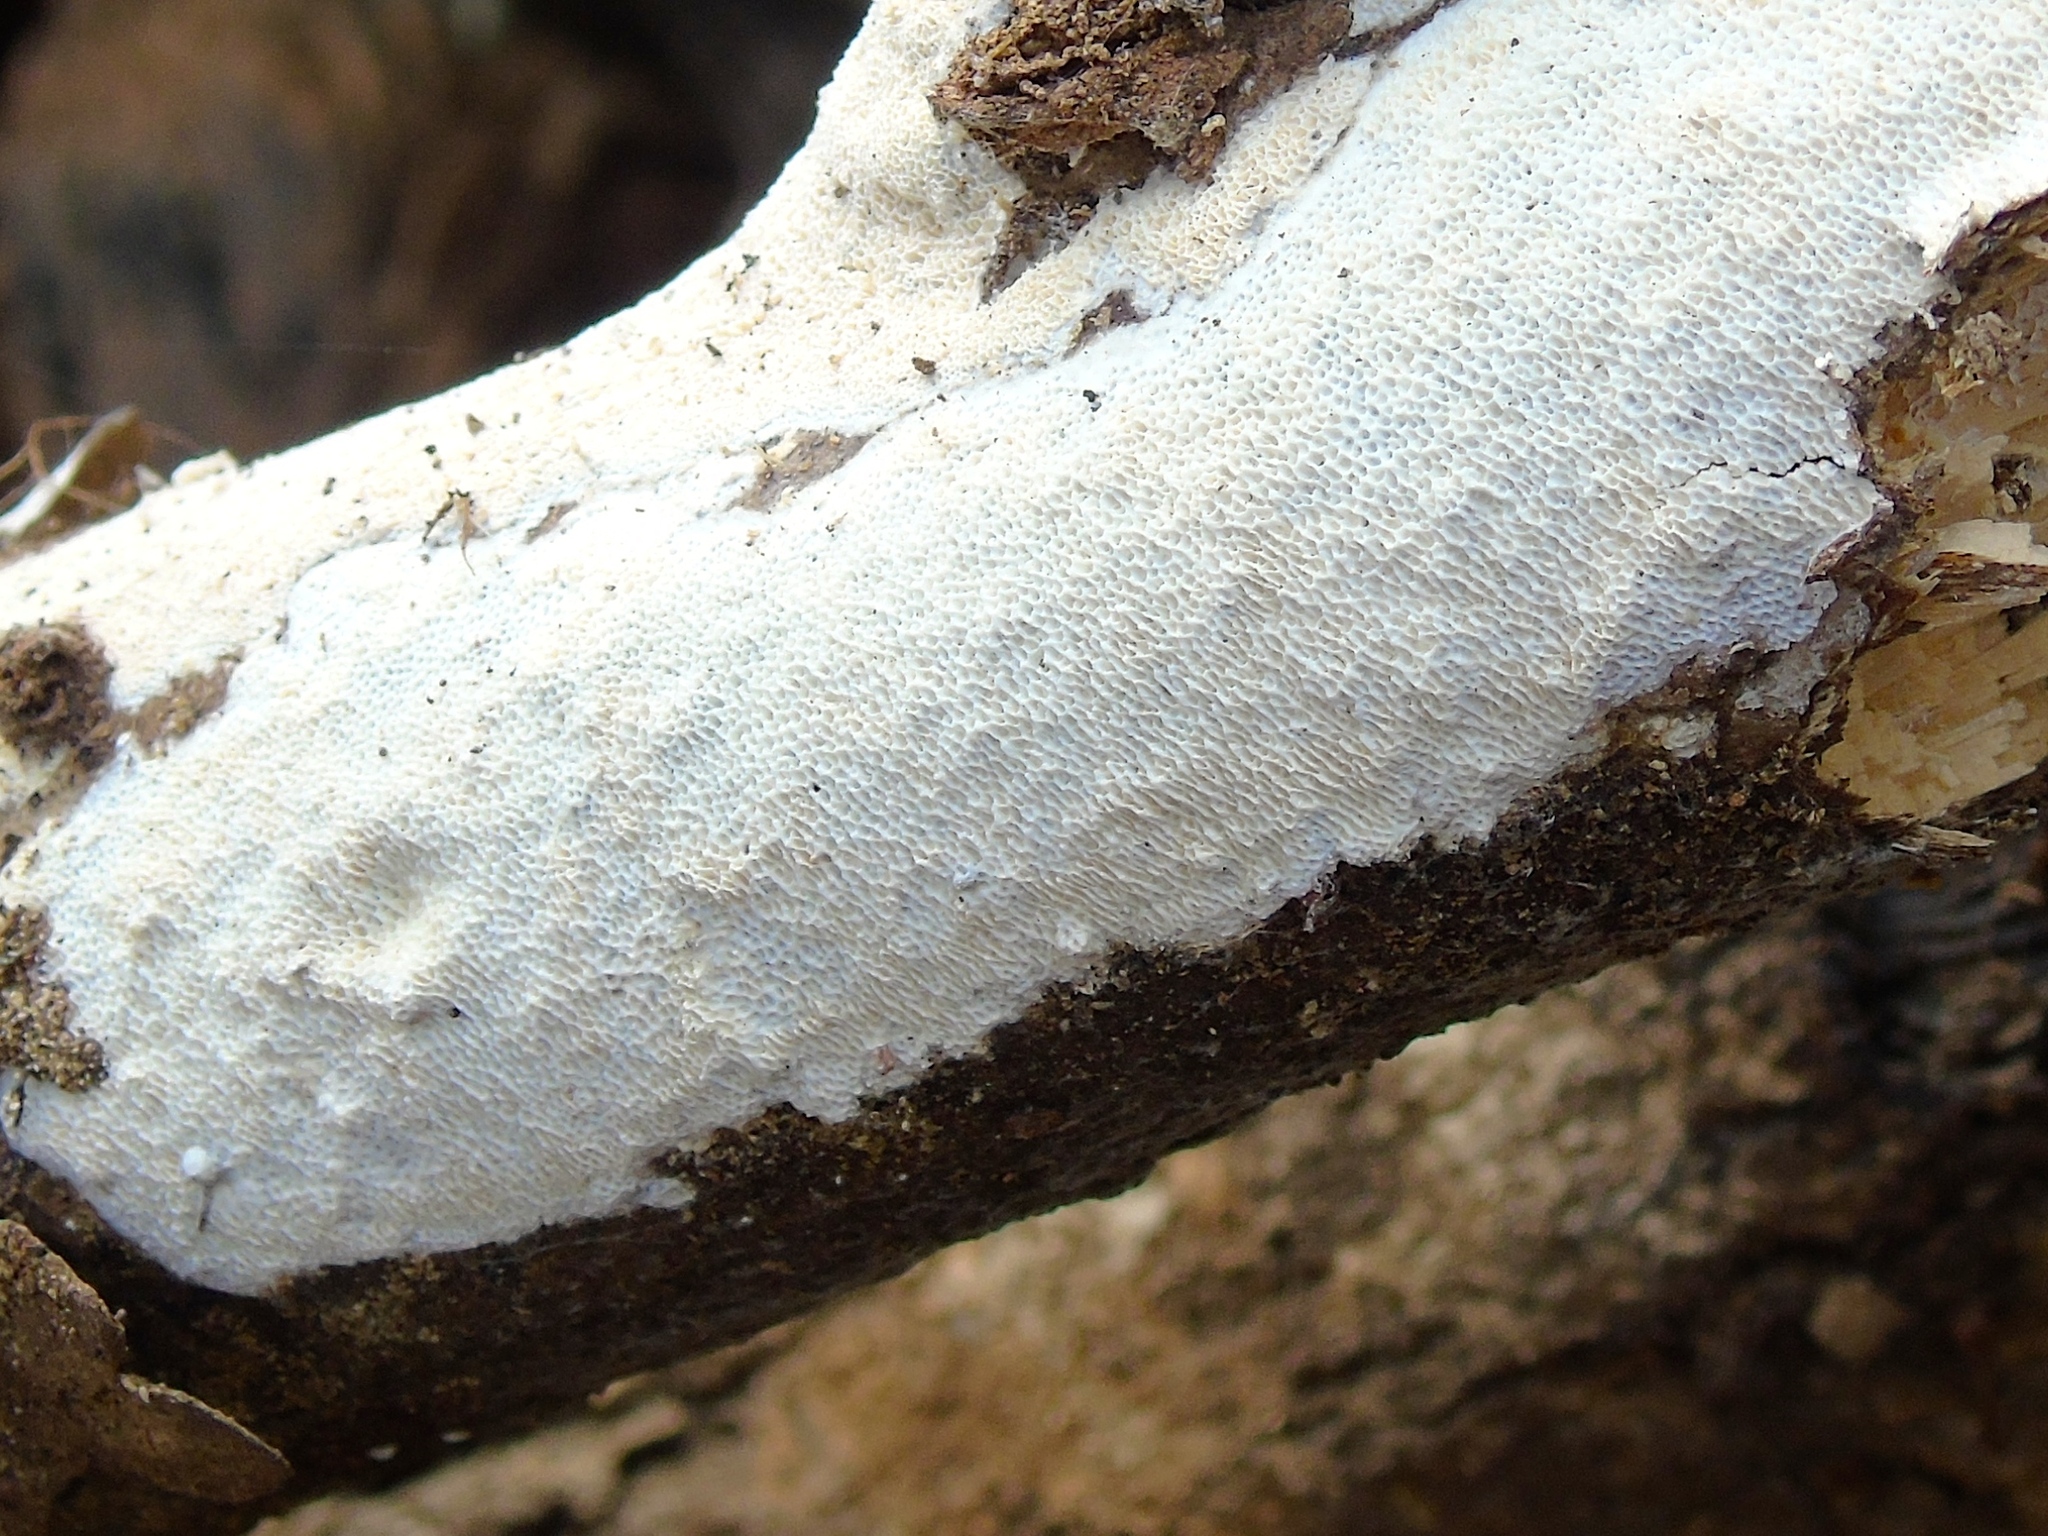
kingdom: Fungi
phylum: Basidiomycota
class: Agaricomycetes
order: Polyporales
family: Polyporaceae
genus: Poria
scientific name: Poria
